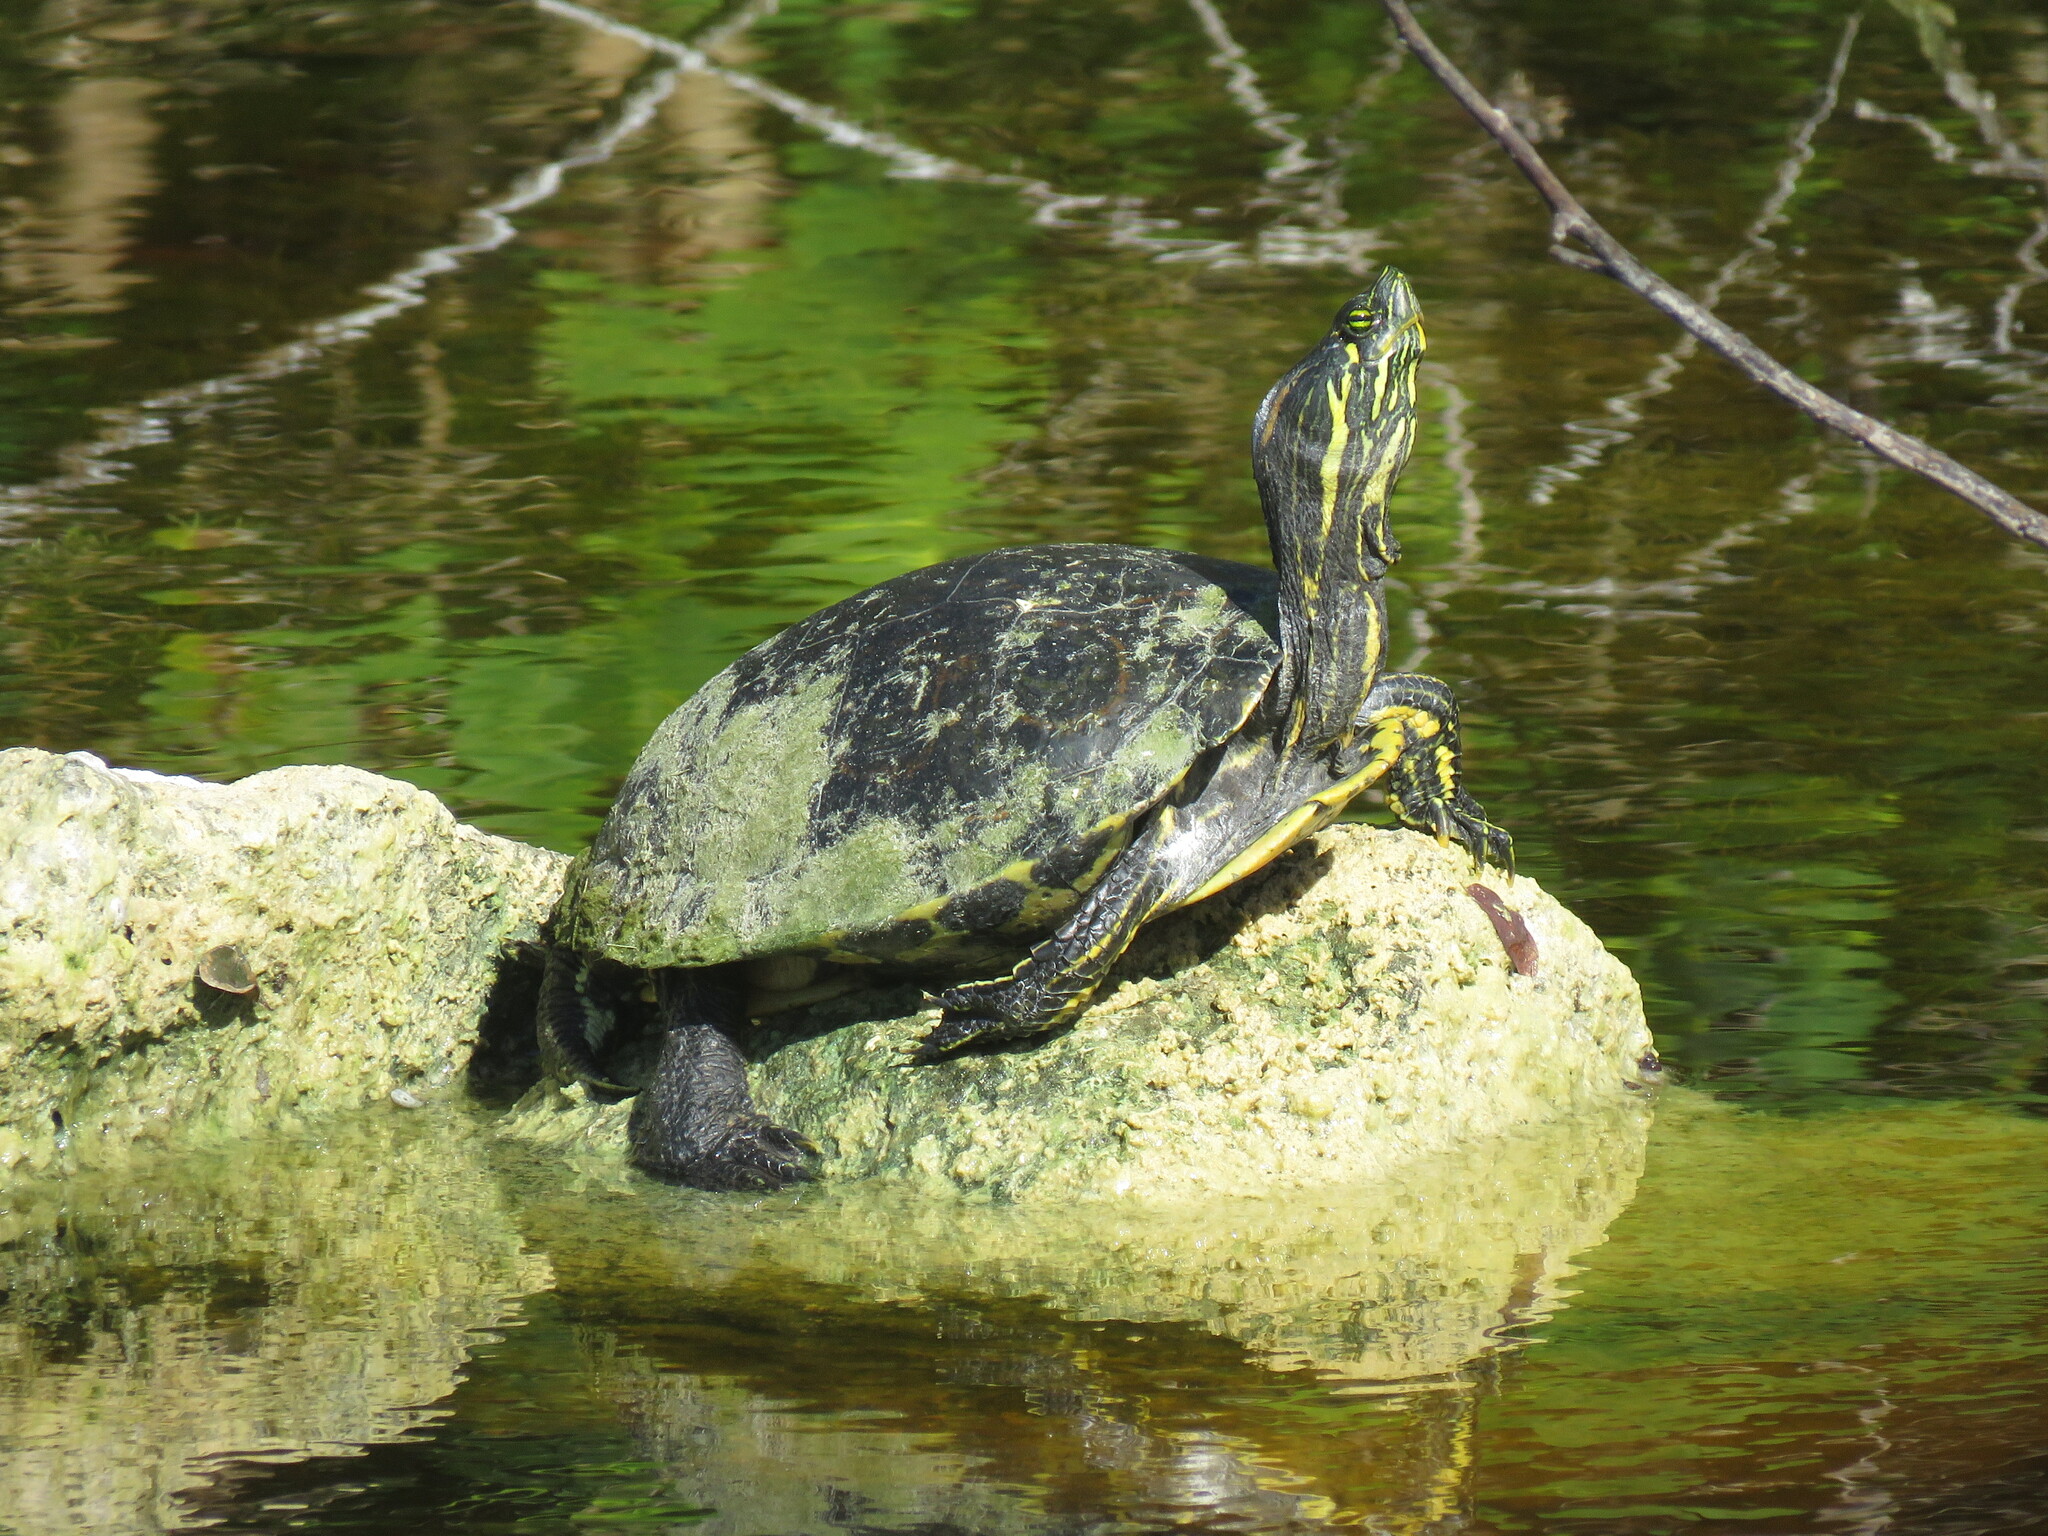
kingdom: Animalia
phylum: Chordata
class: Testudines
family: Emydidae
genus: Trachemys
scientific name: Trachemys venusta
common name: Mesoamerican slider
